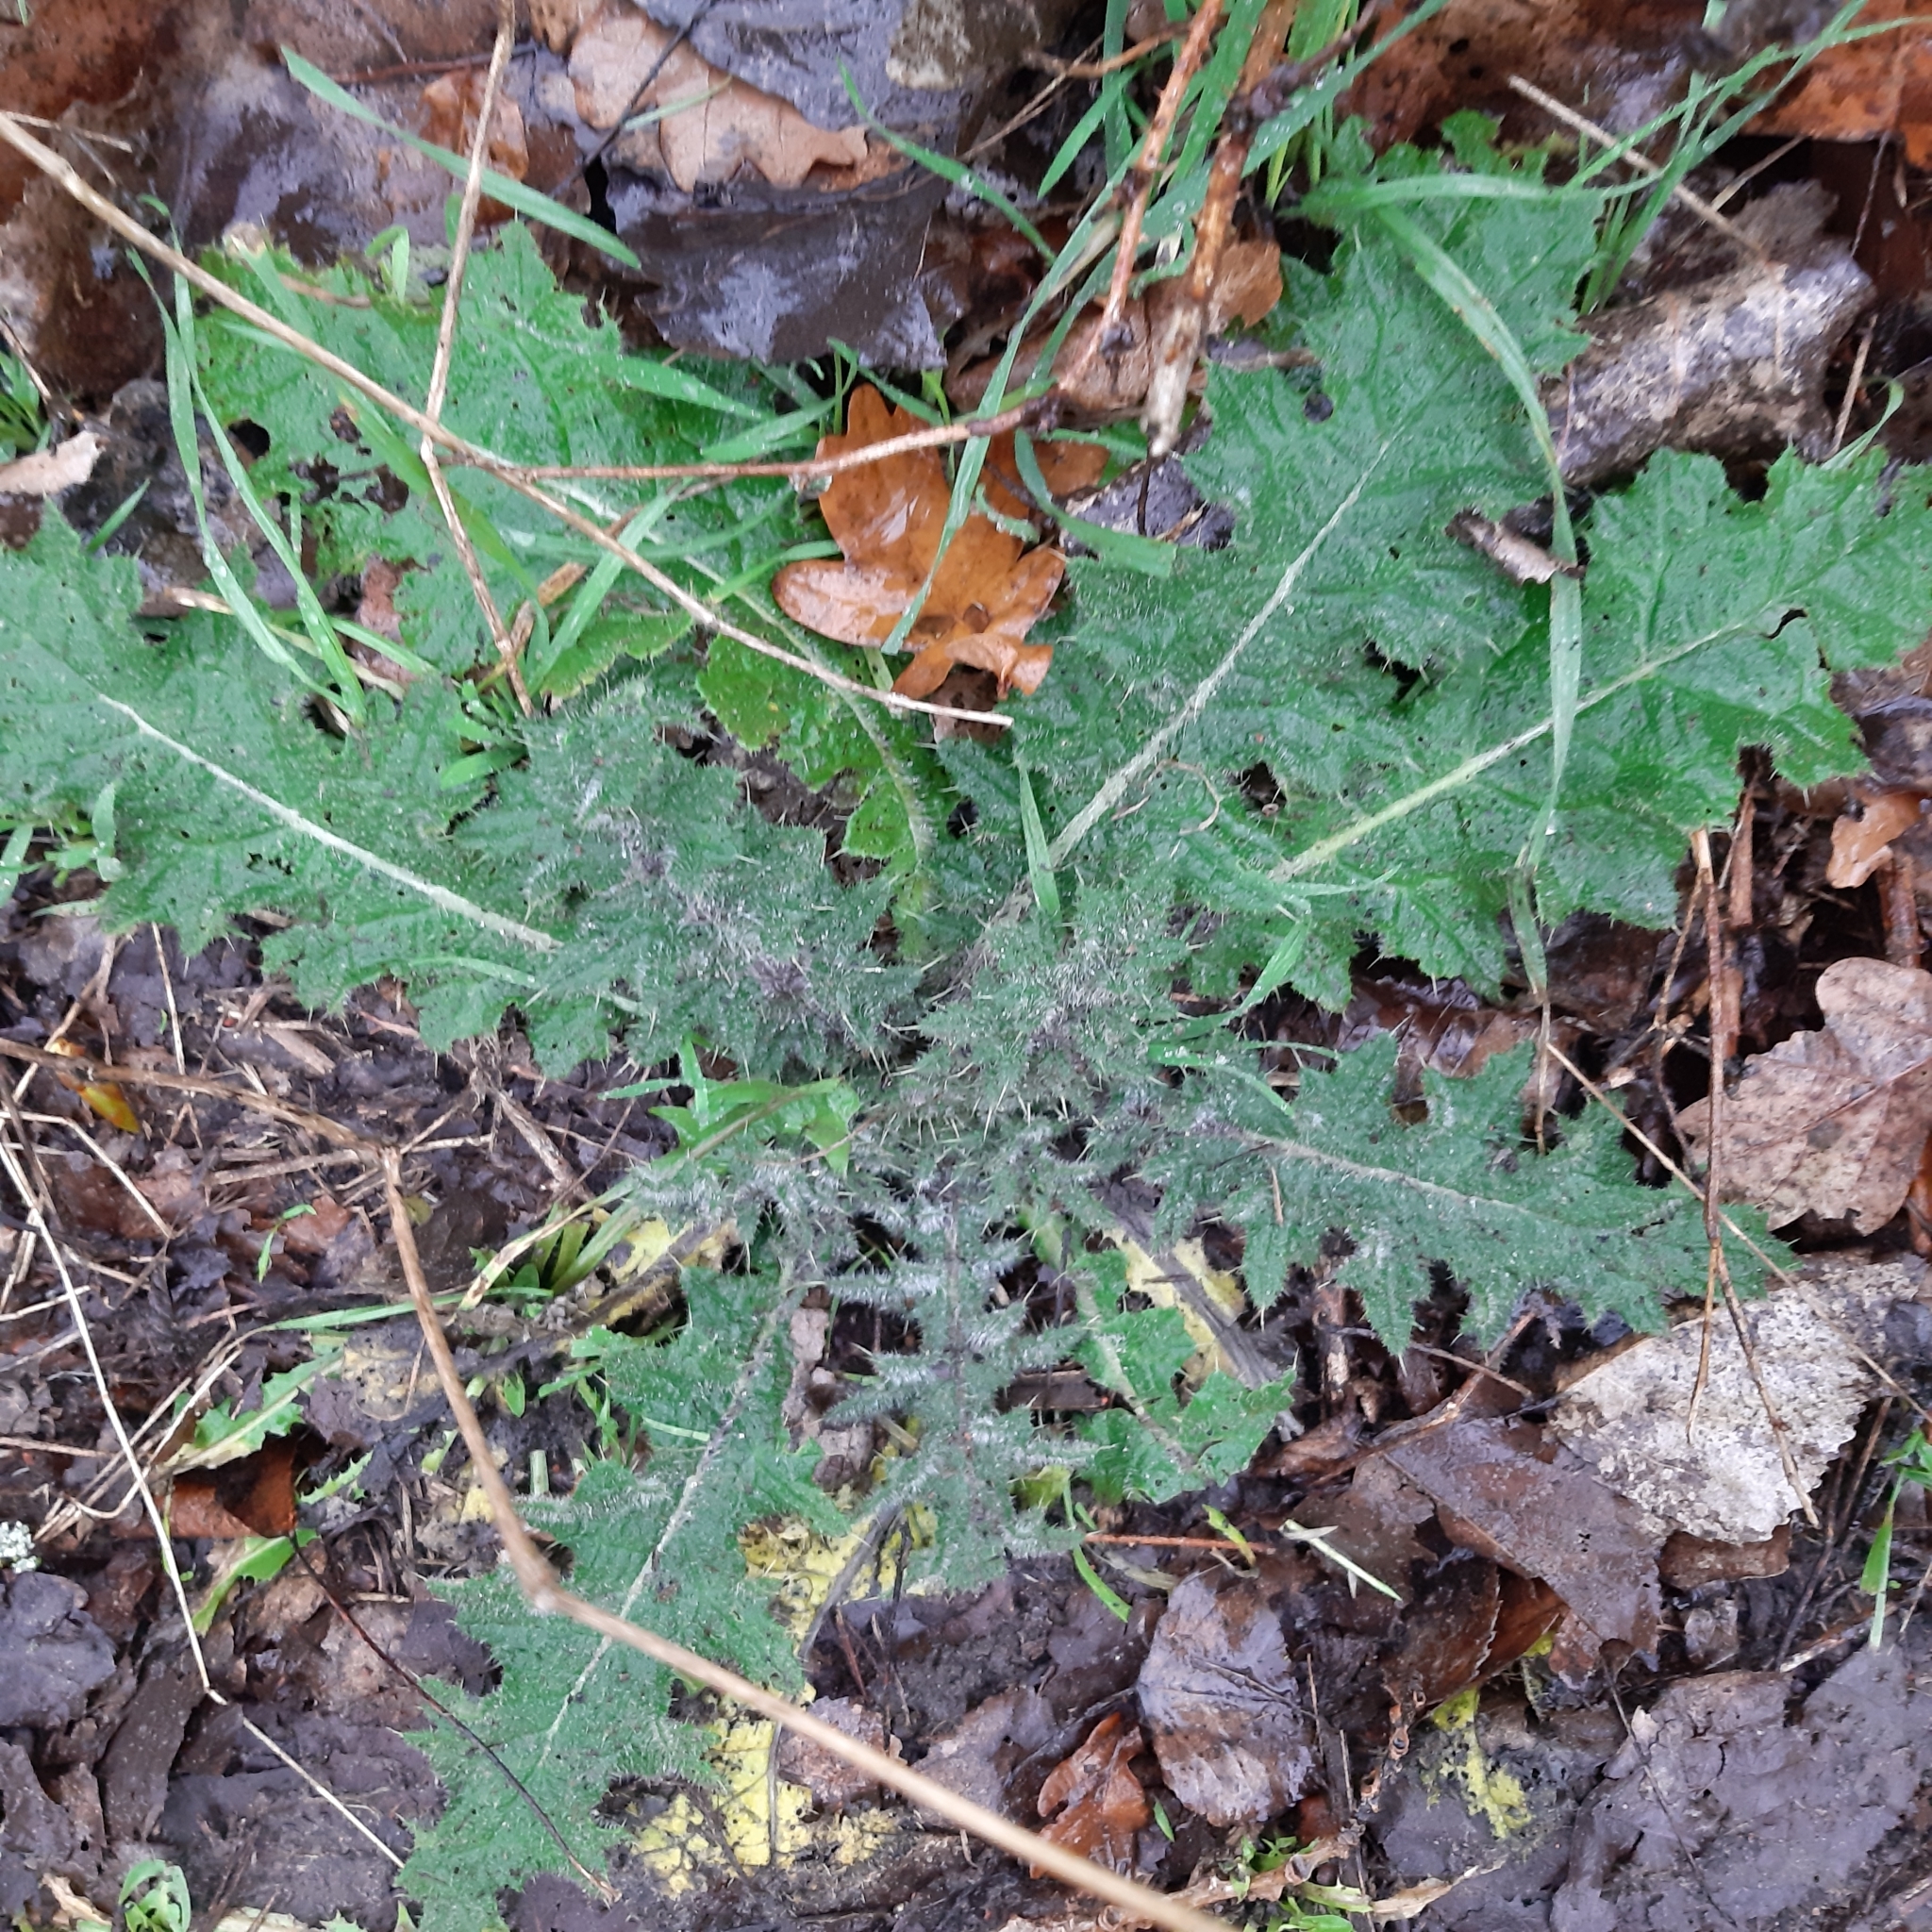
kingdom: Plantae
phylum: Tracheophyta
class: Magnoliopsida
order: Asterales
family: Asteraceae
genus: Cirsium
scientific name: Cirsium vulgare
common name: Bull thistle
